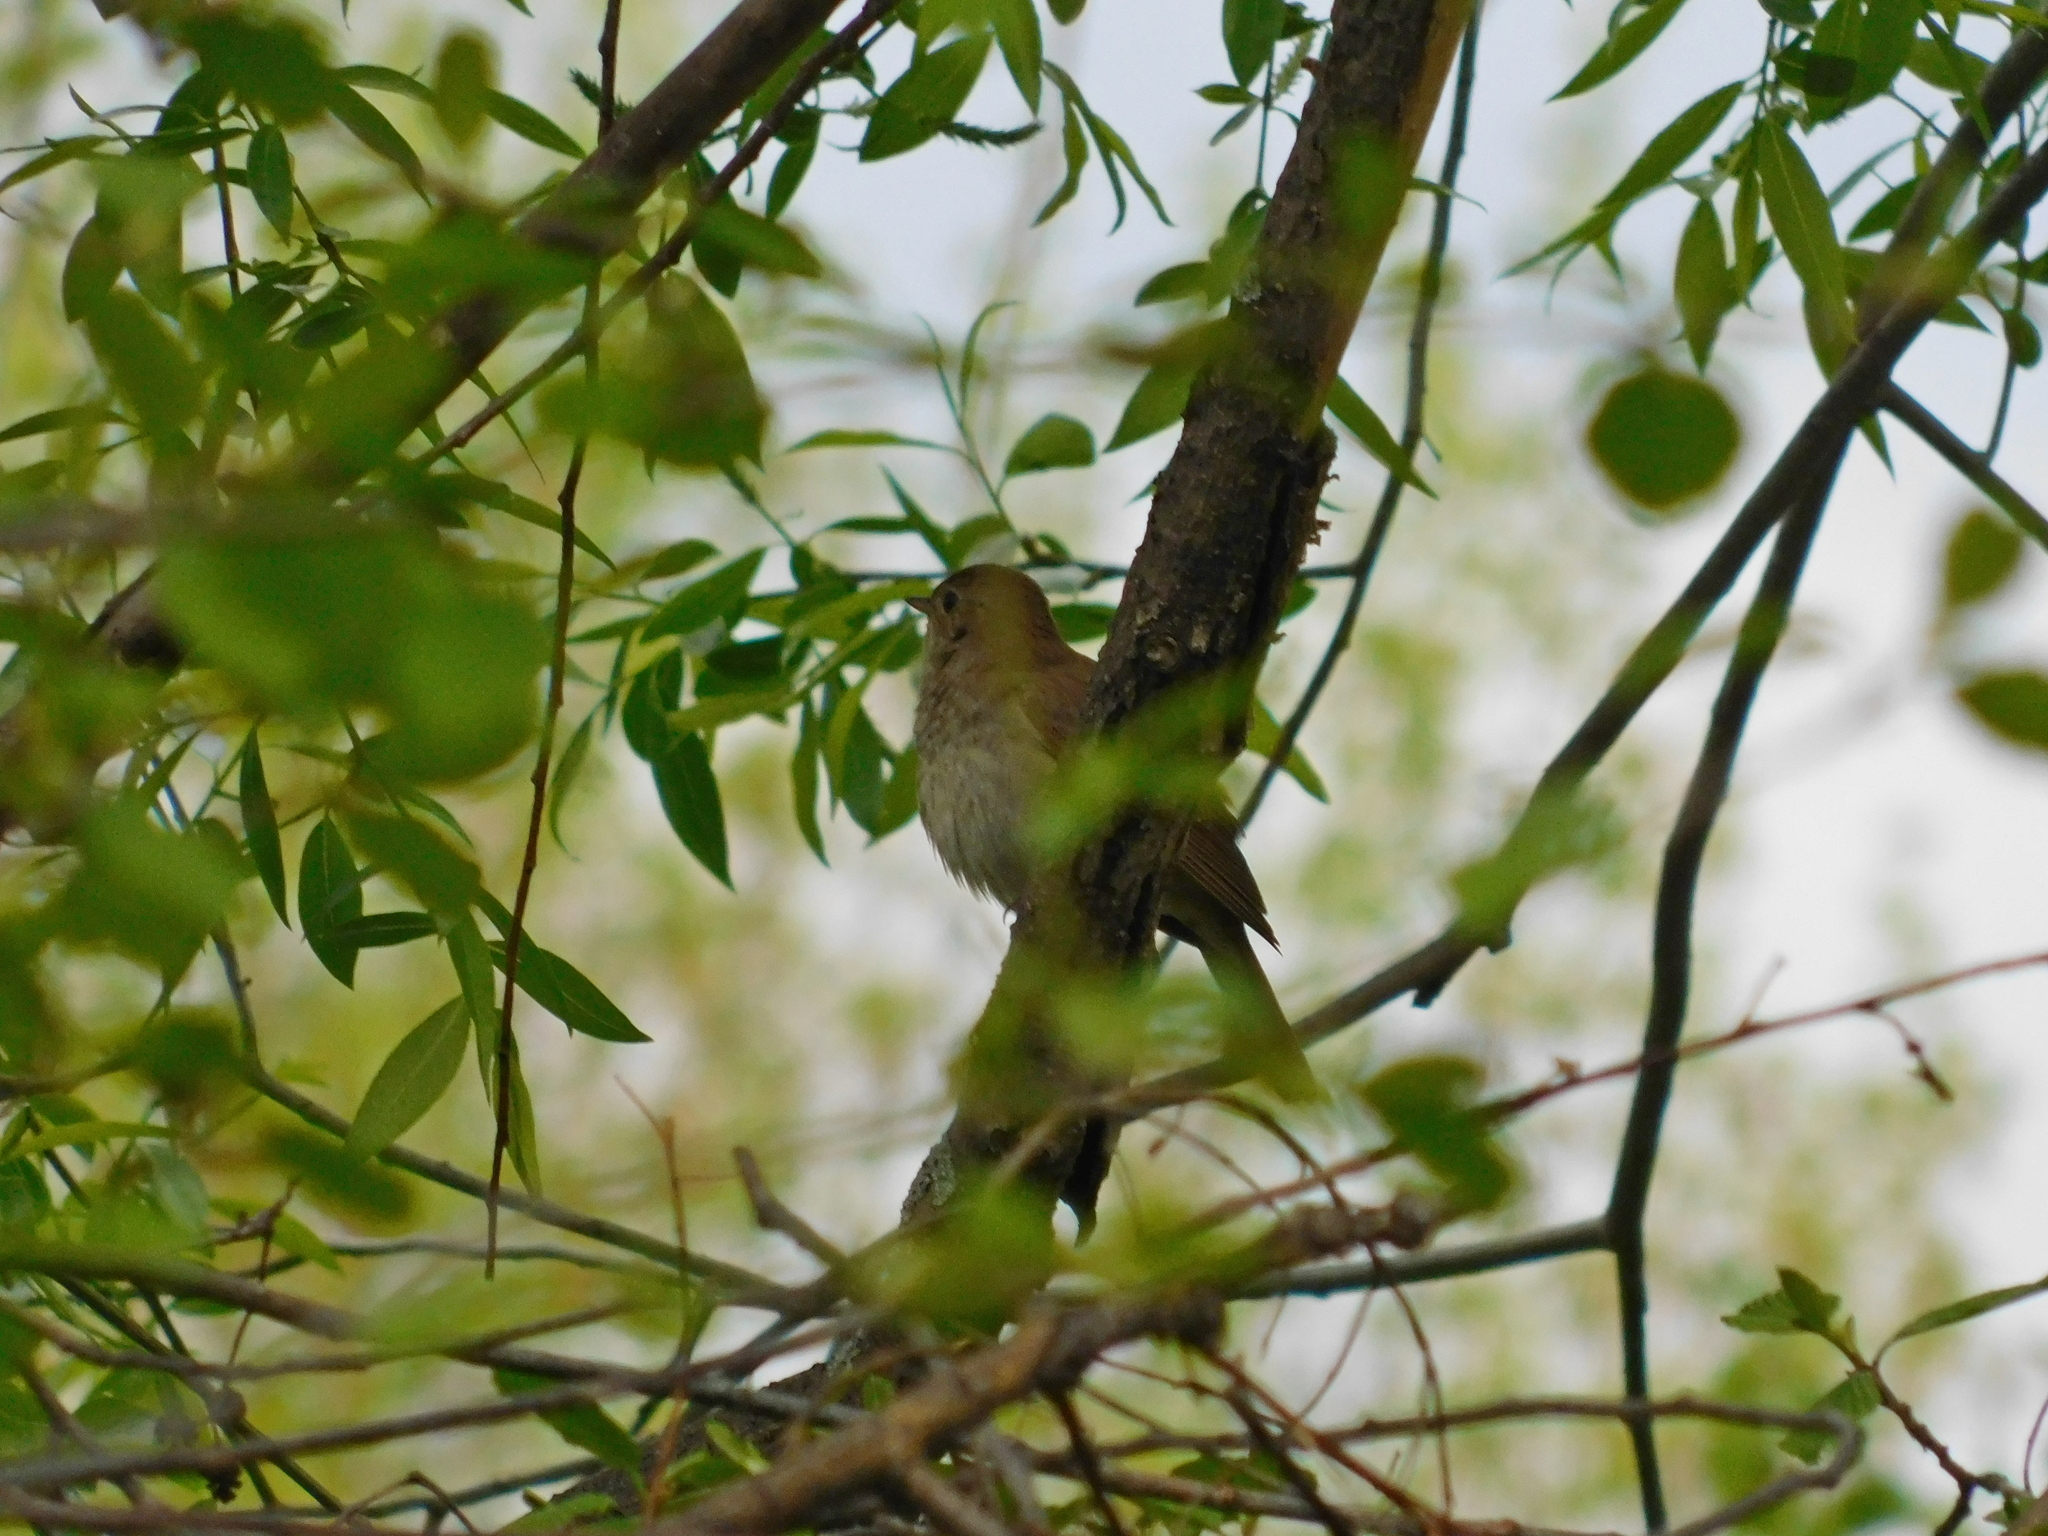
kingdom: Animalia
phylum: Chordata
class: Aves
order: Passeriformes
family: Muscicapidae
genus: Luscinia
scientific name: Luscinia luscinia
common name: Thrush nightingale
